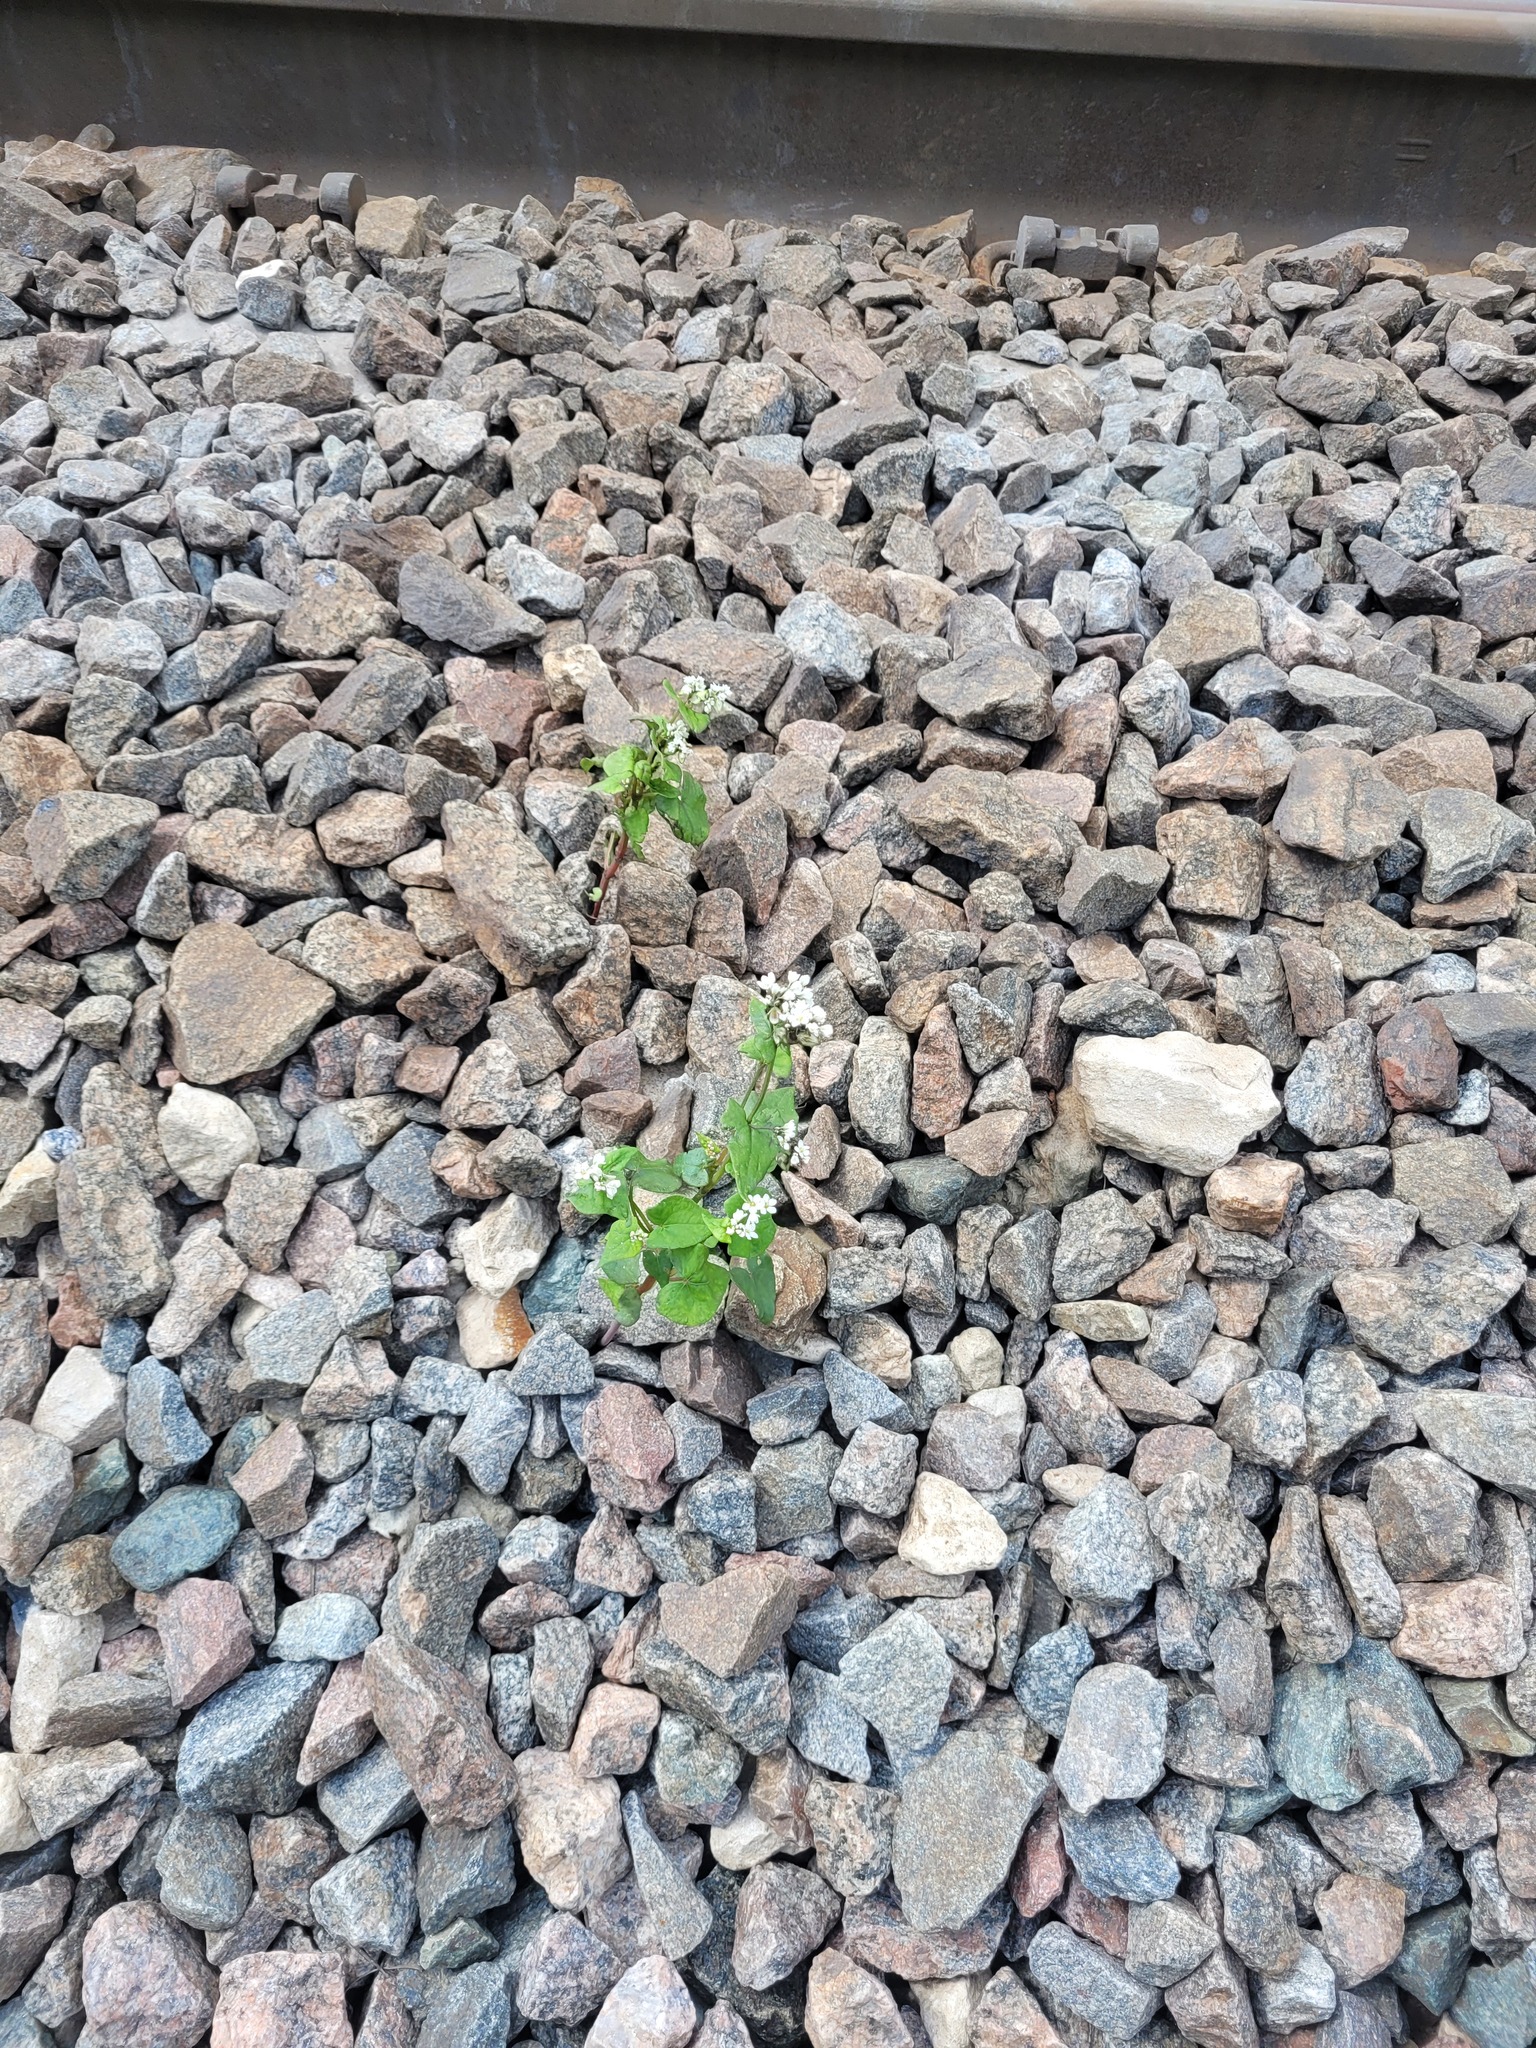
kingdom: Plantae
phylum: Tracheophyta
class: Magnoliopsida
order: Caryophyllales
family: Polygonaceae
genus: Fagopyrum
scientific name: Fagopyrum esculentum
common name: Buckwheat
